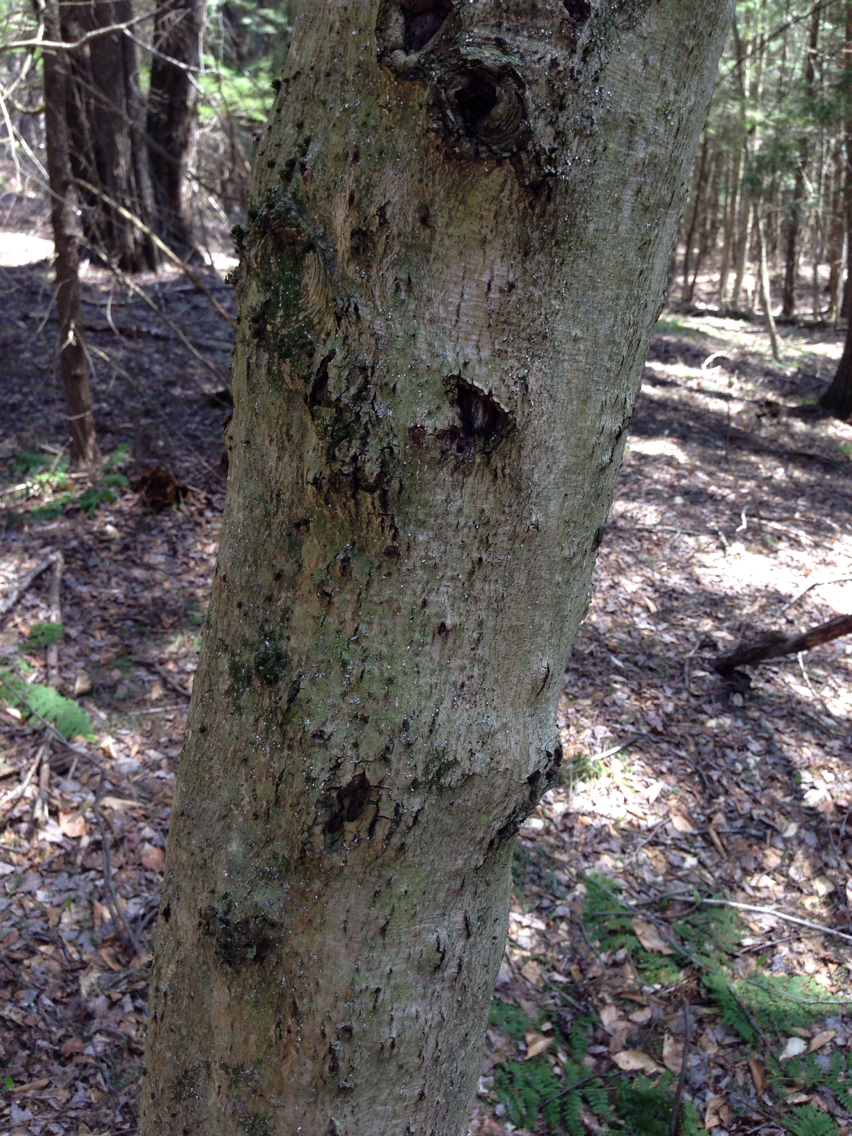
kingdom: Animalia
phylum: Arthropoda
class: Insecta
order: Hemiptera
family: Eriococcidae
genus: Cryptococcus
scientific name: Cryptococcus fagisuga
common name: Beech scale
